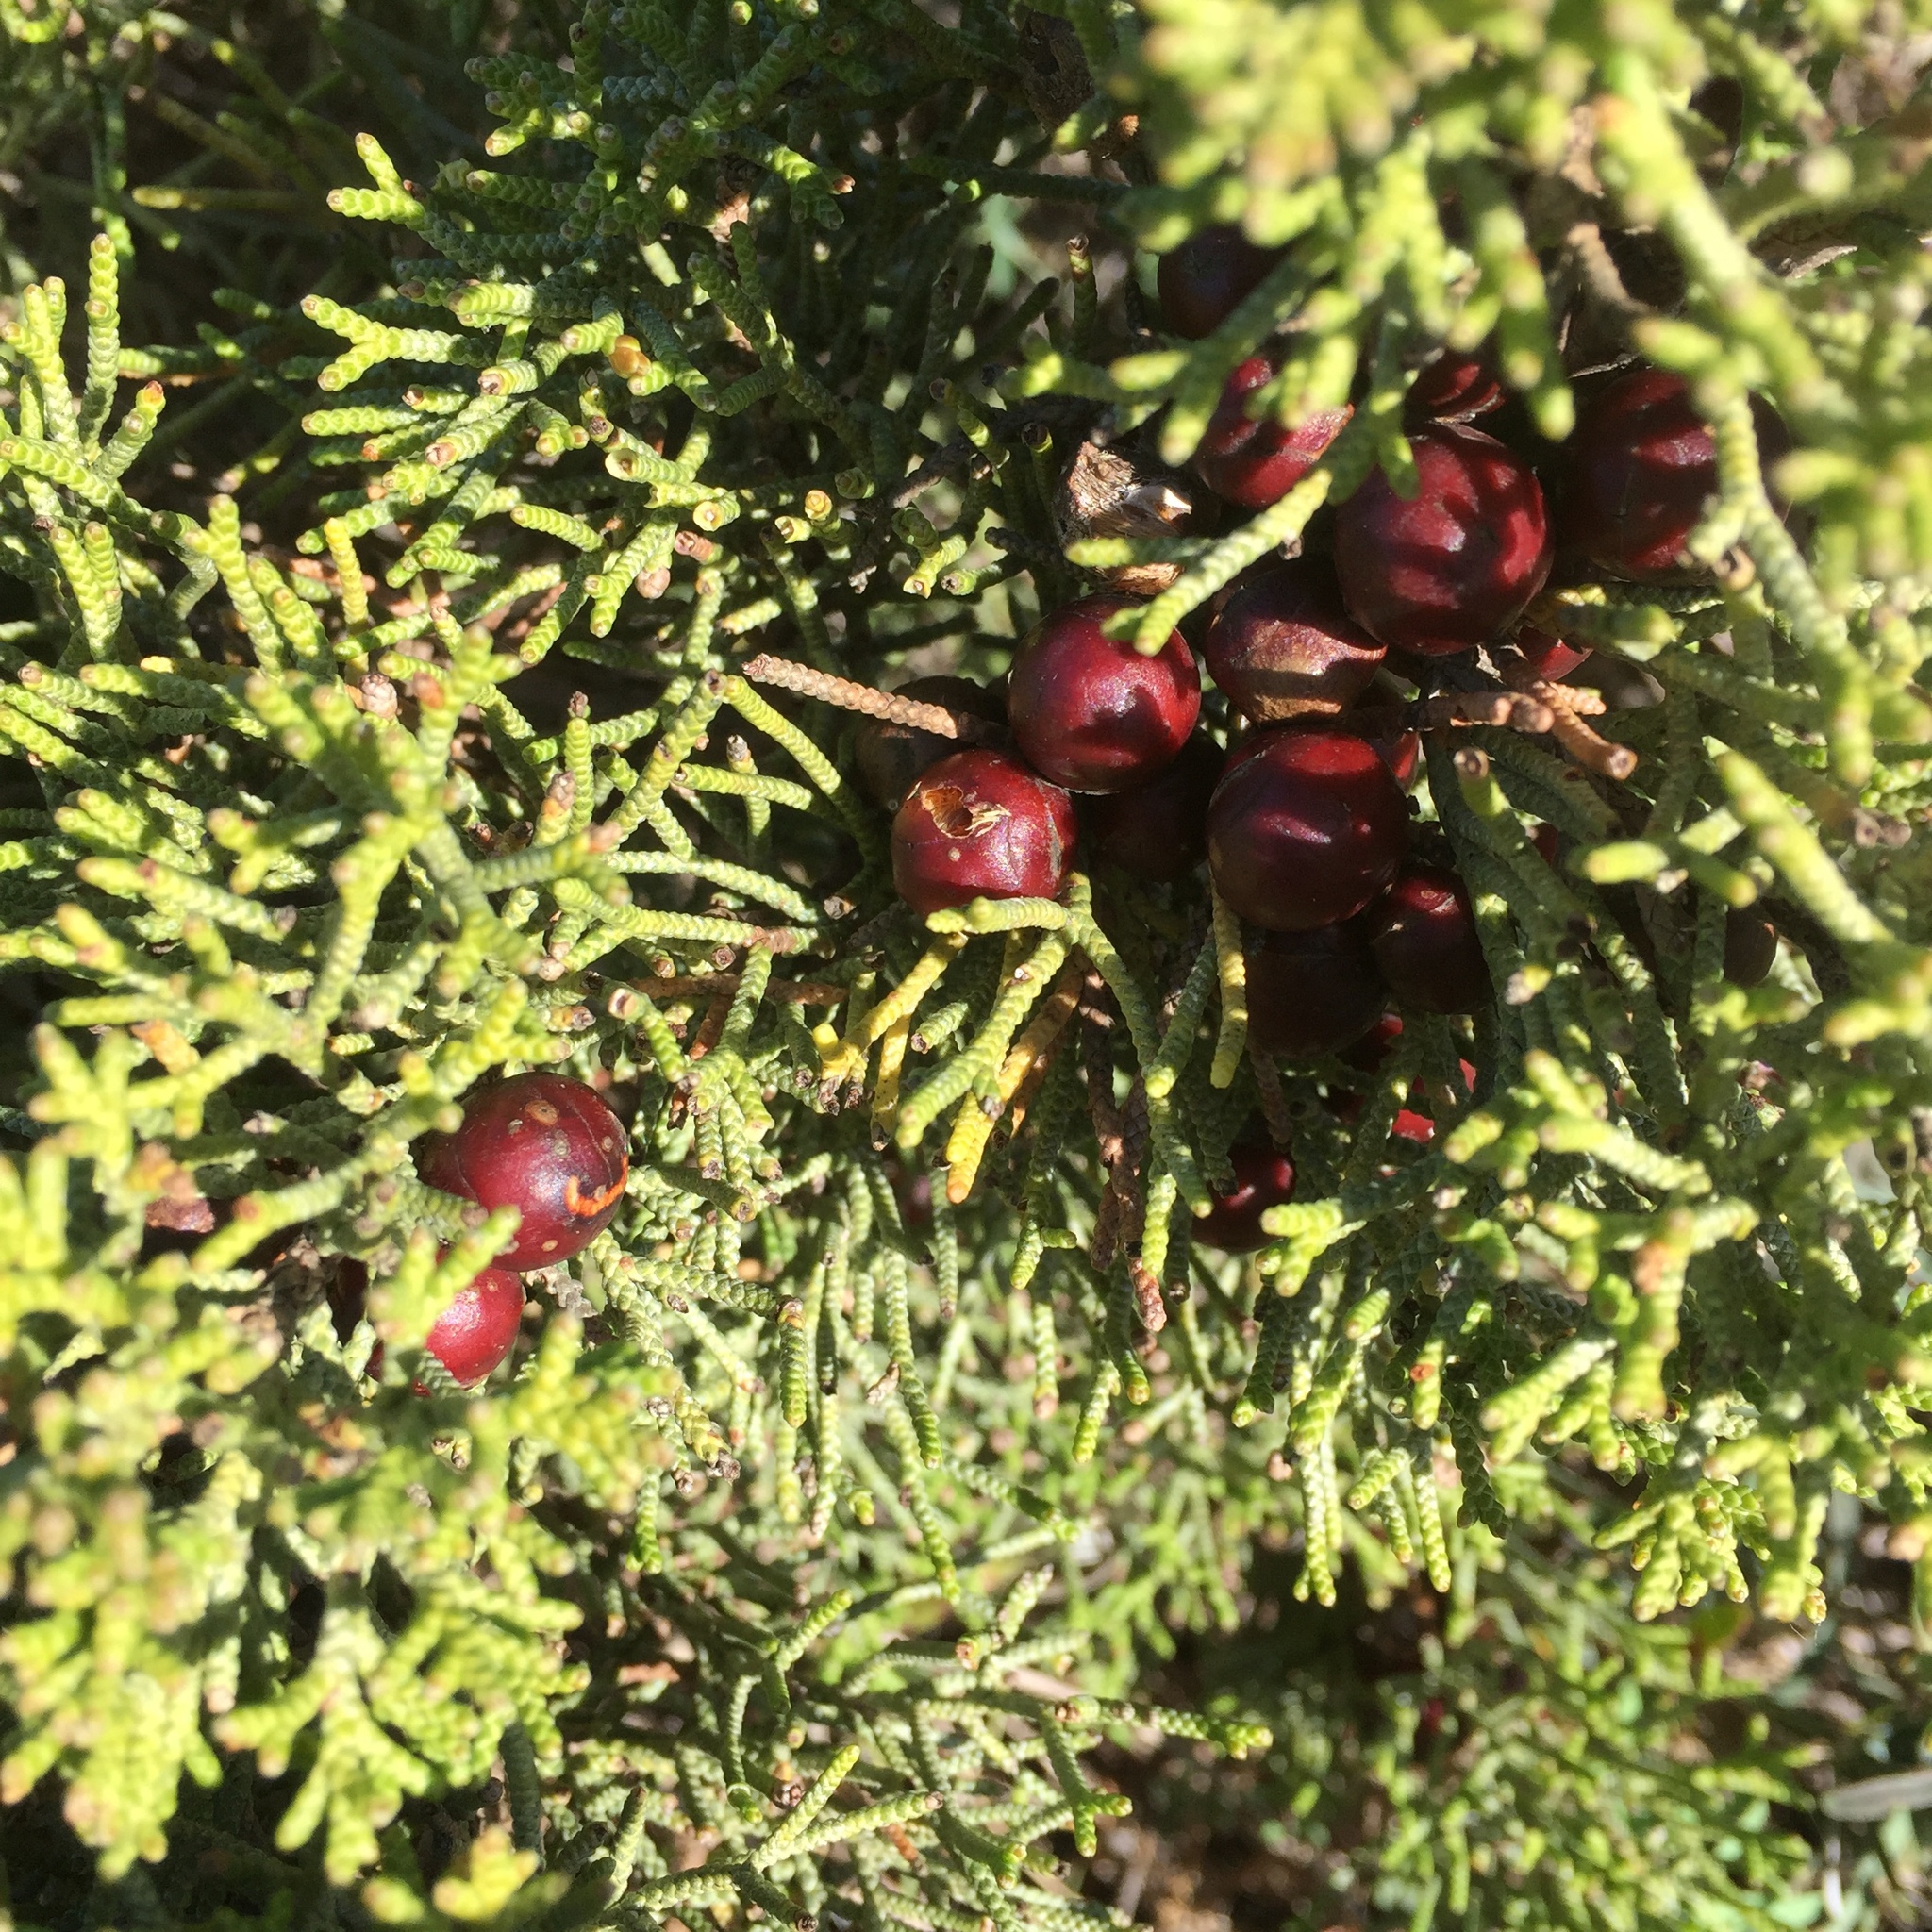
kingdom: Plantae
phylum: Tracheophyta
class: Pinopsida
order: Pinales
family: Cupressaceae
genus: Juniperus
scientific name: Juniperus phoenicea
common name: Phoenician juniper
